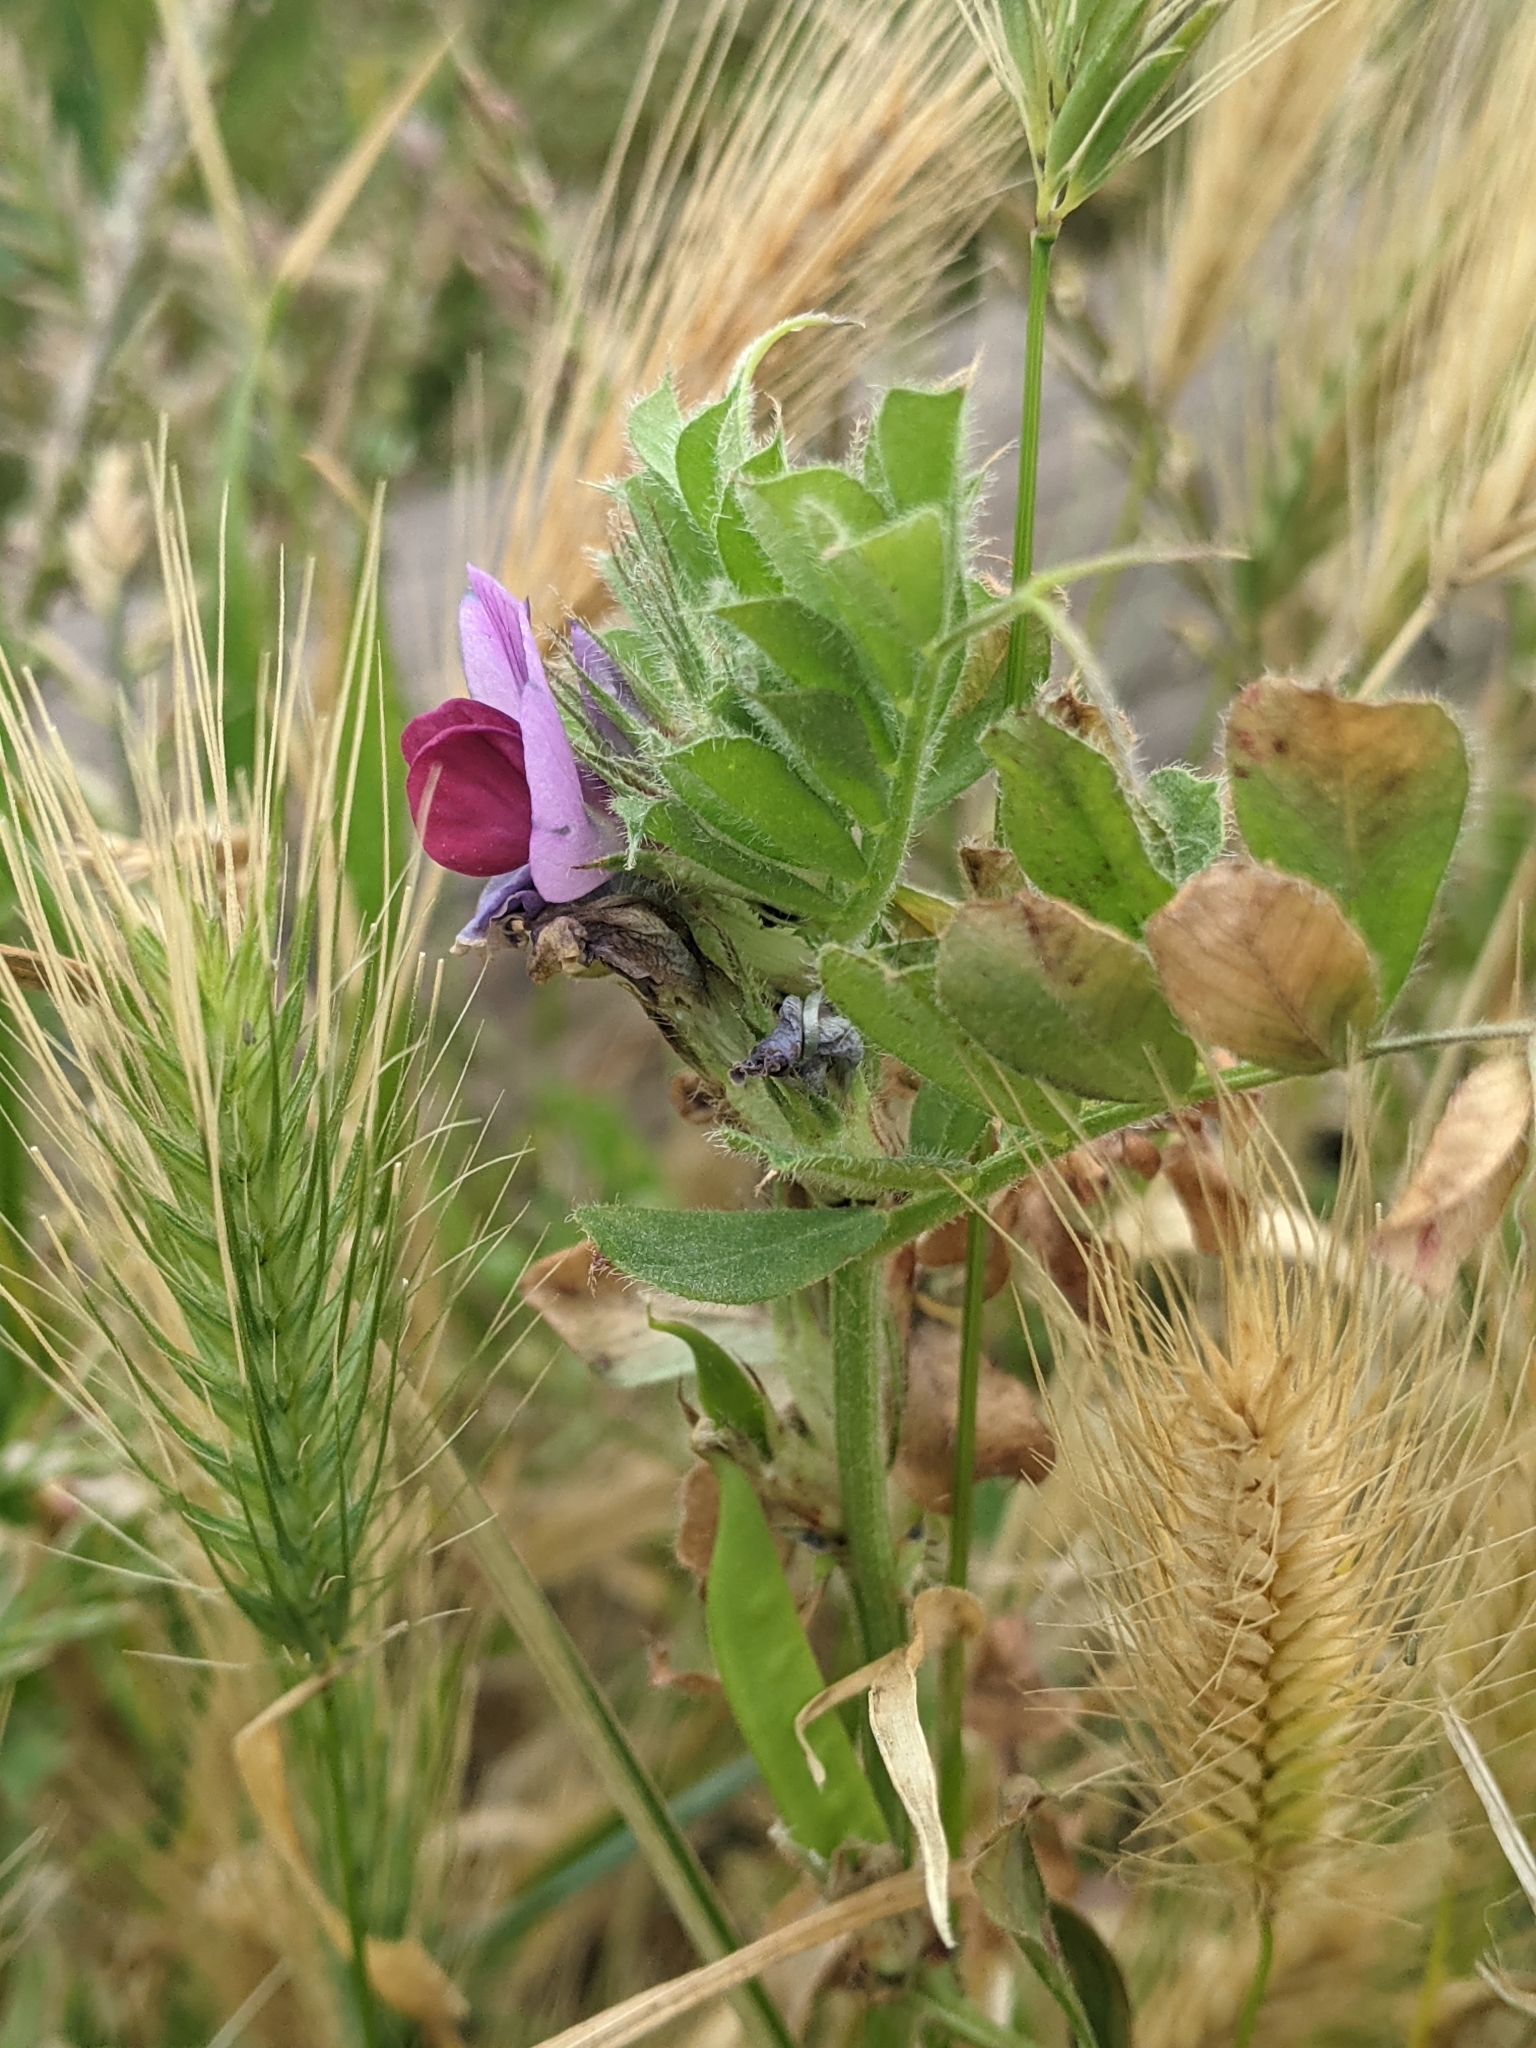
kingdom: Plantae
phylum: Tracheophyta
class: Magnoliopsida
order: Fabales
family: Fabaceae
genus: Vicia
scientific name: Vicia sativa
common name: Garden vetch
